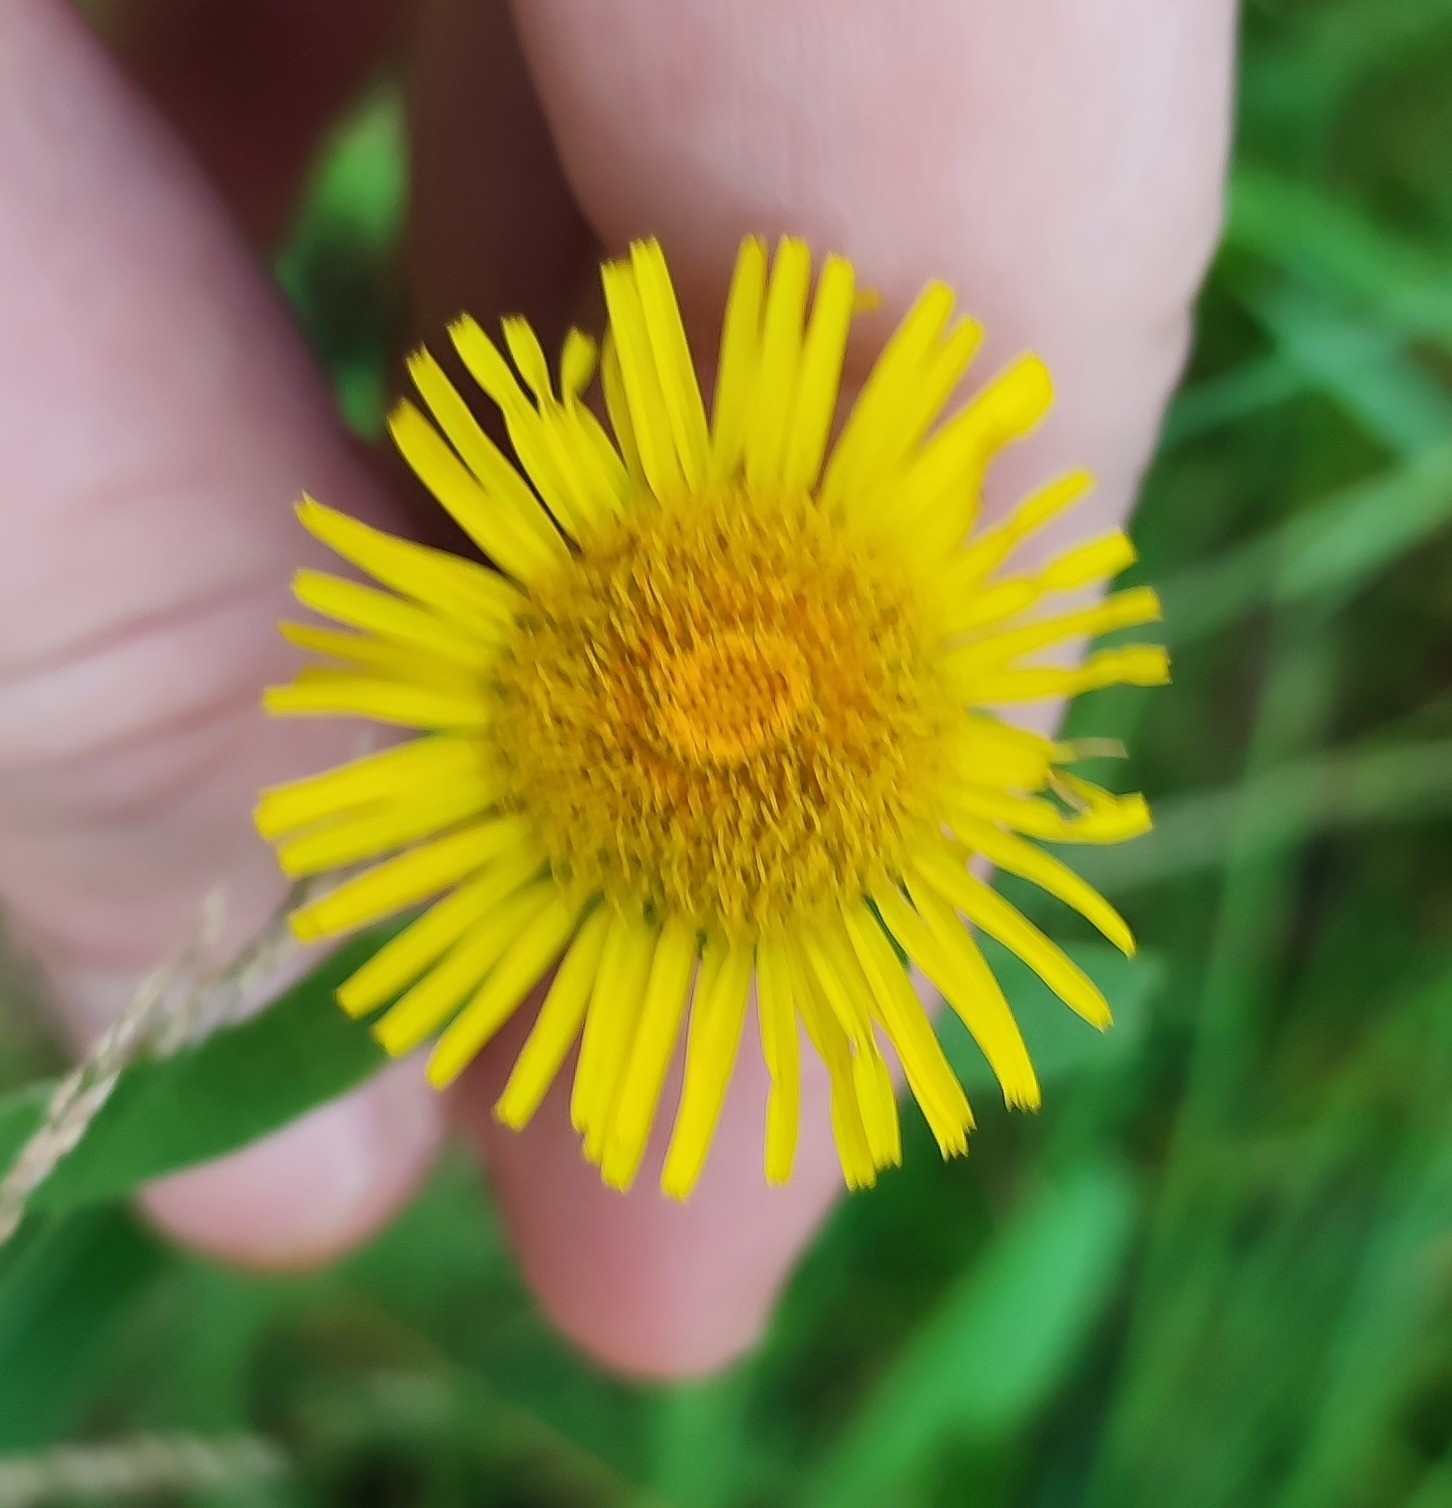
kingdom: Plantae
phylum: Tracheophyta
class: Magnoliopsida
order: Asterales
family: Asteraceae
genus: Pentanema
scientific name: Pentanema britannicum
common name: British elecampane
